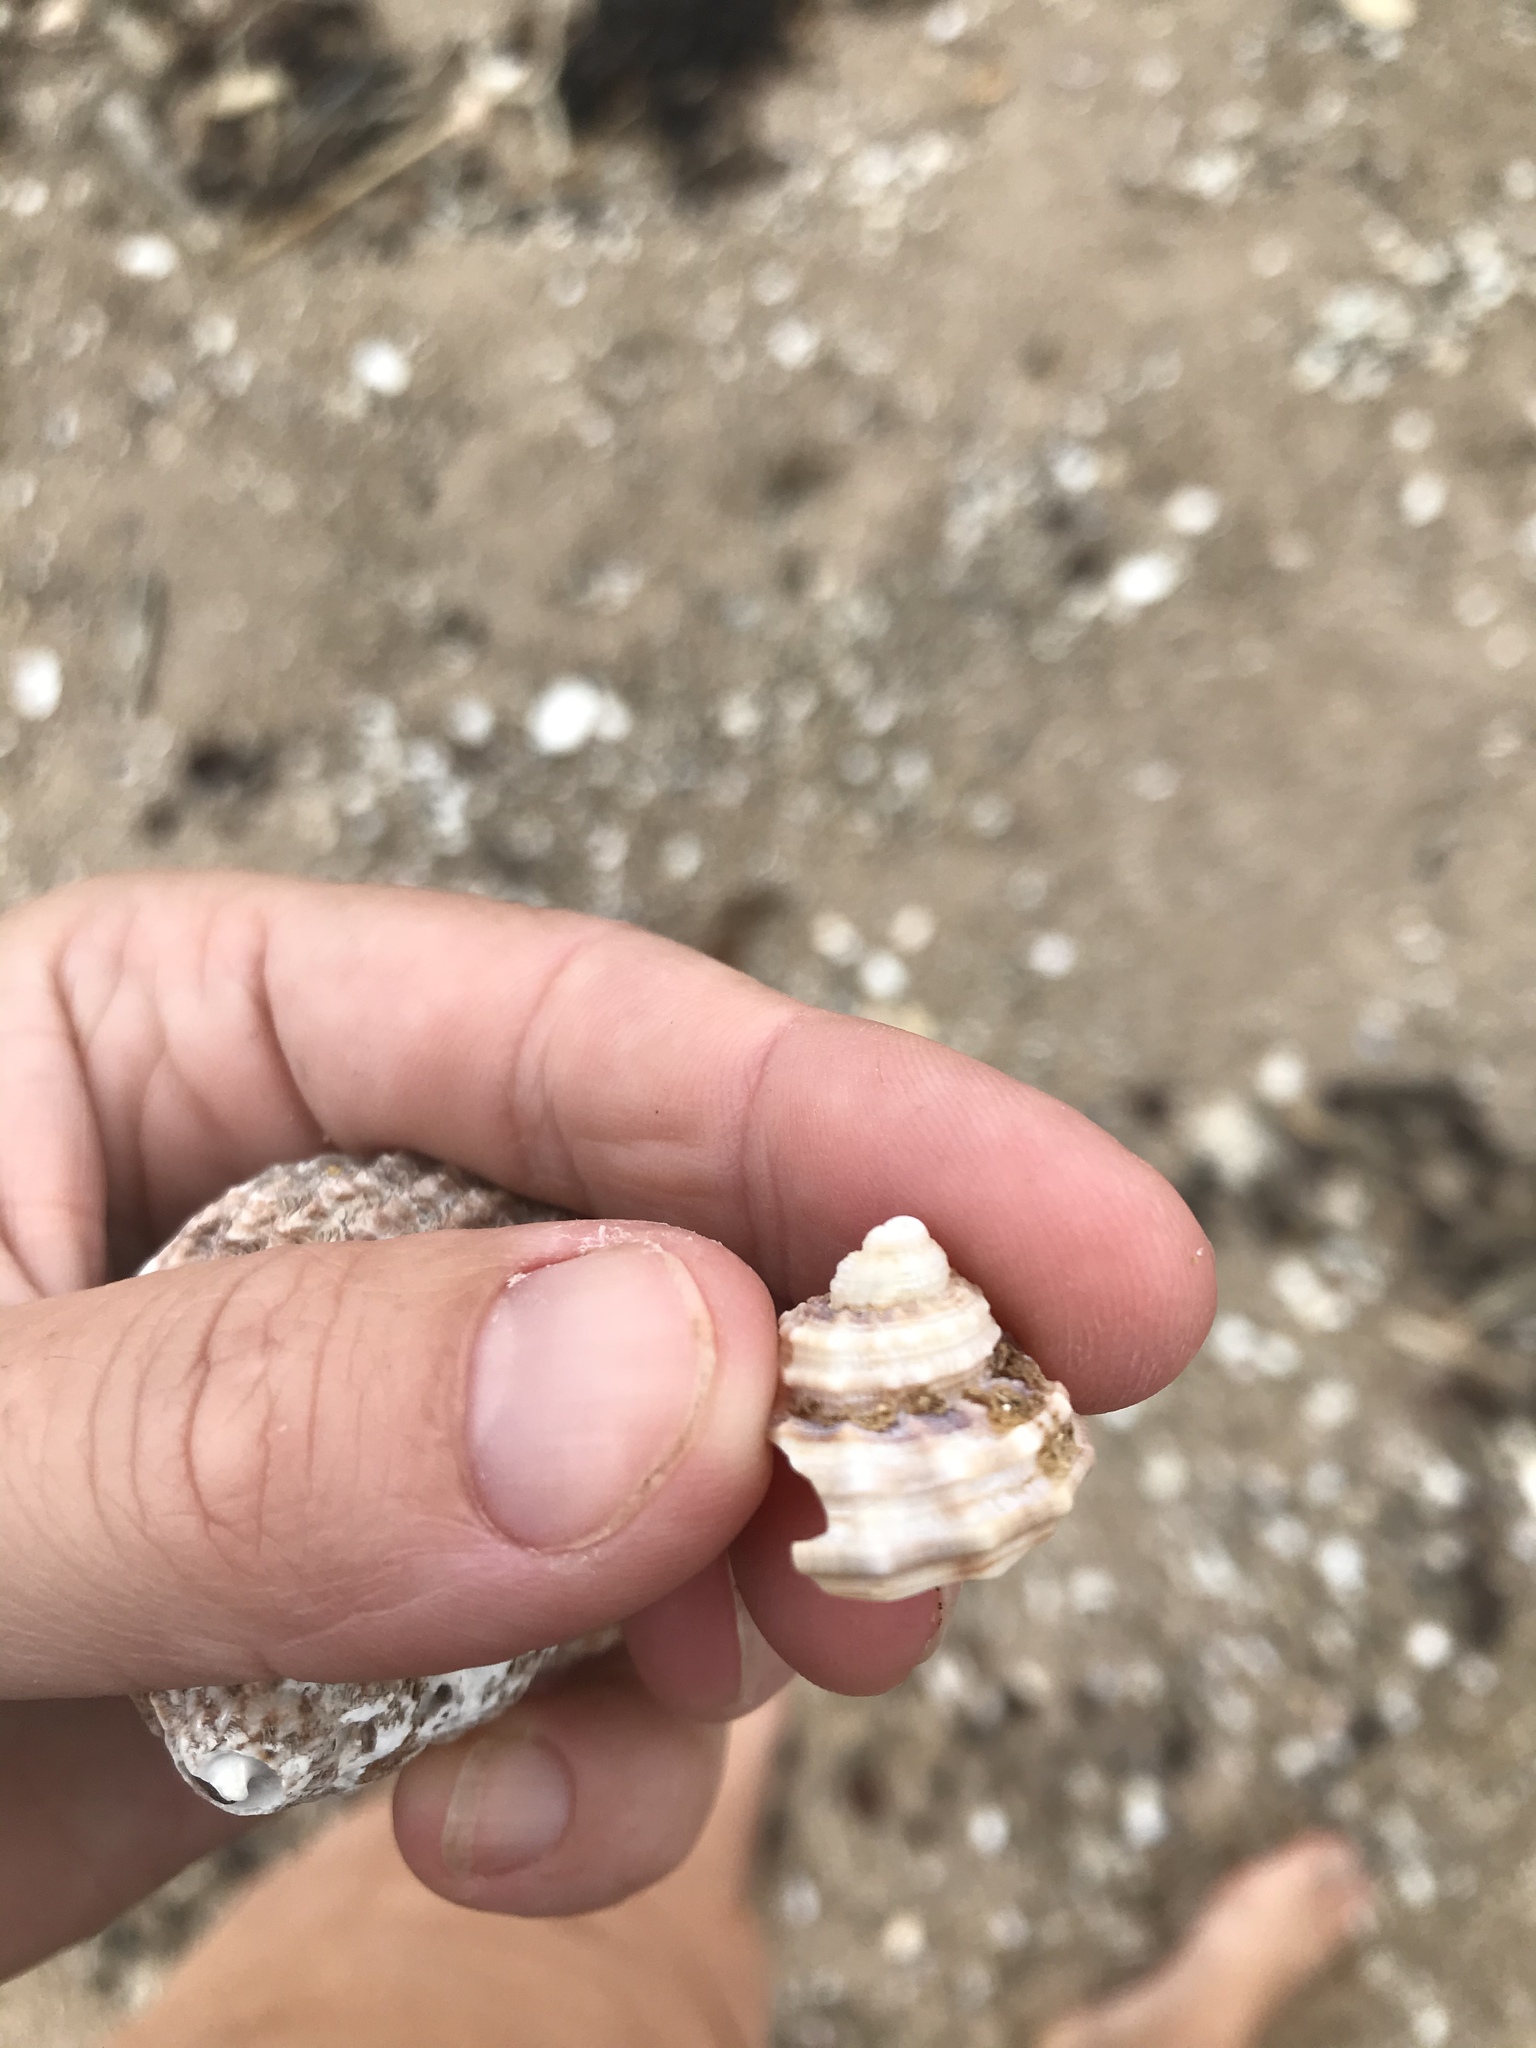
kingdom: Animalia
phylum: Mollusca
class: Gastropoda
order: Littorinimorpha
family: Cymatiidae
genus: Monoplex
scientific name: Monoplex parthenopeus
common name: Giant triton
